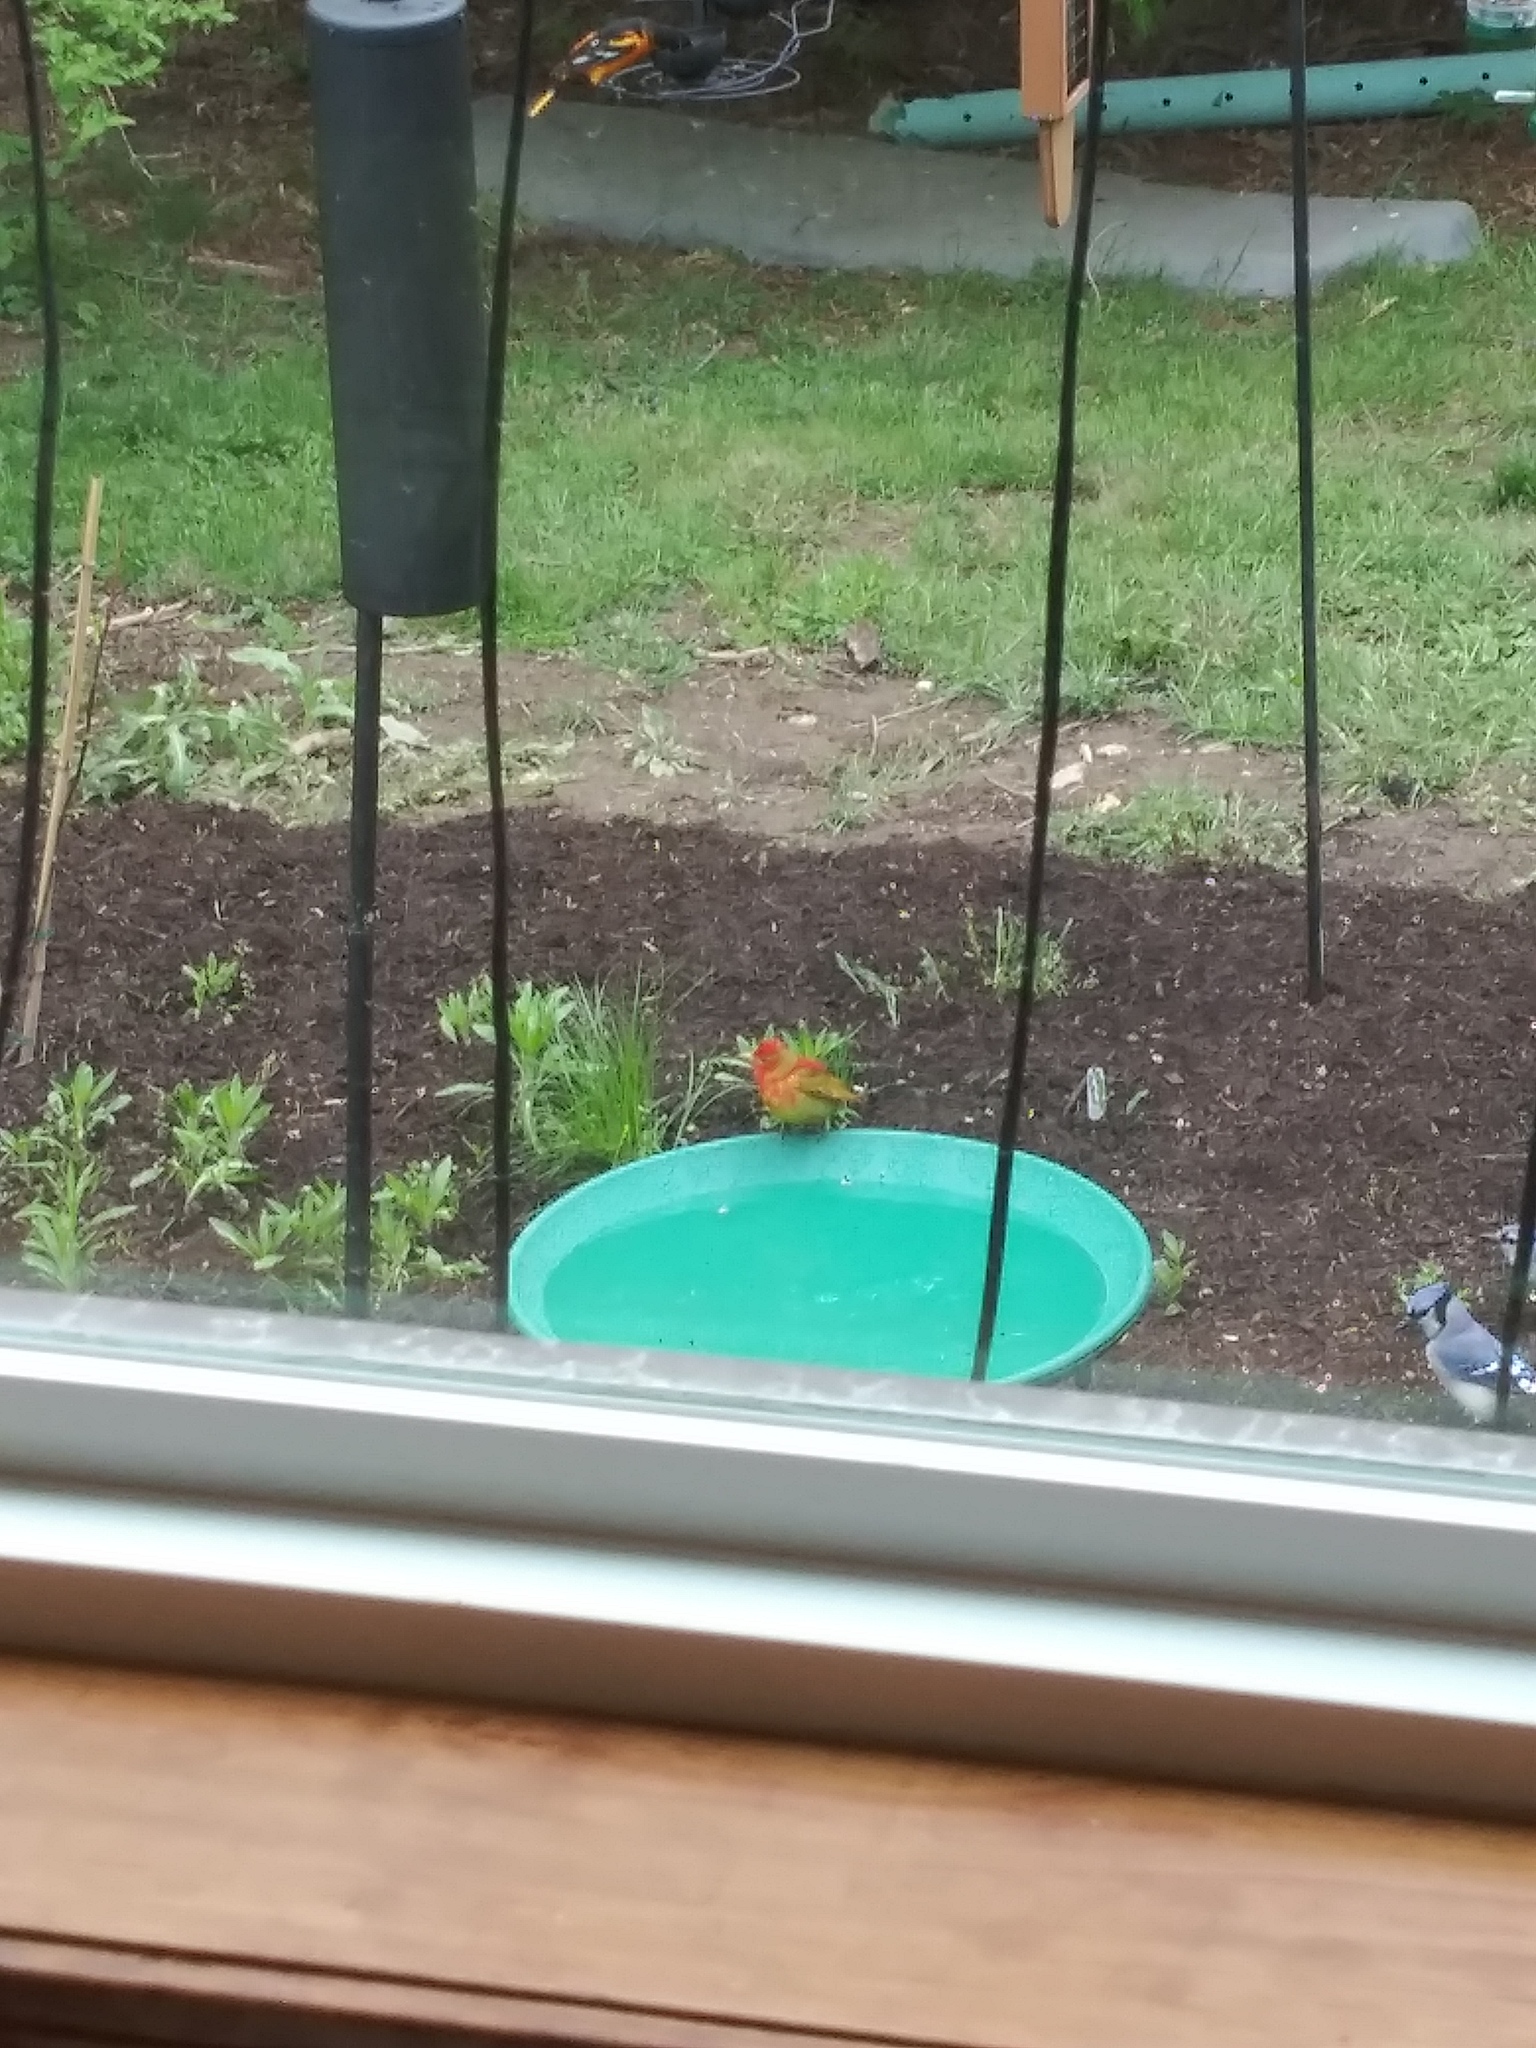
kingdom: Animalia
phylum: Chordata
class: Aves
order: Passeriformes
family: Icteridae
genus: Icterus
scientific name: Icterus galbula
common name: Baltimore oriole
